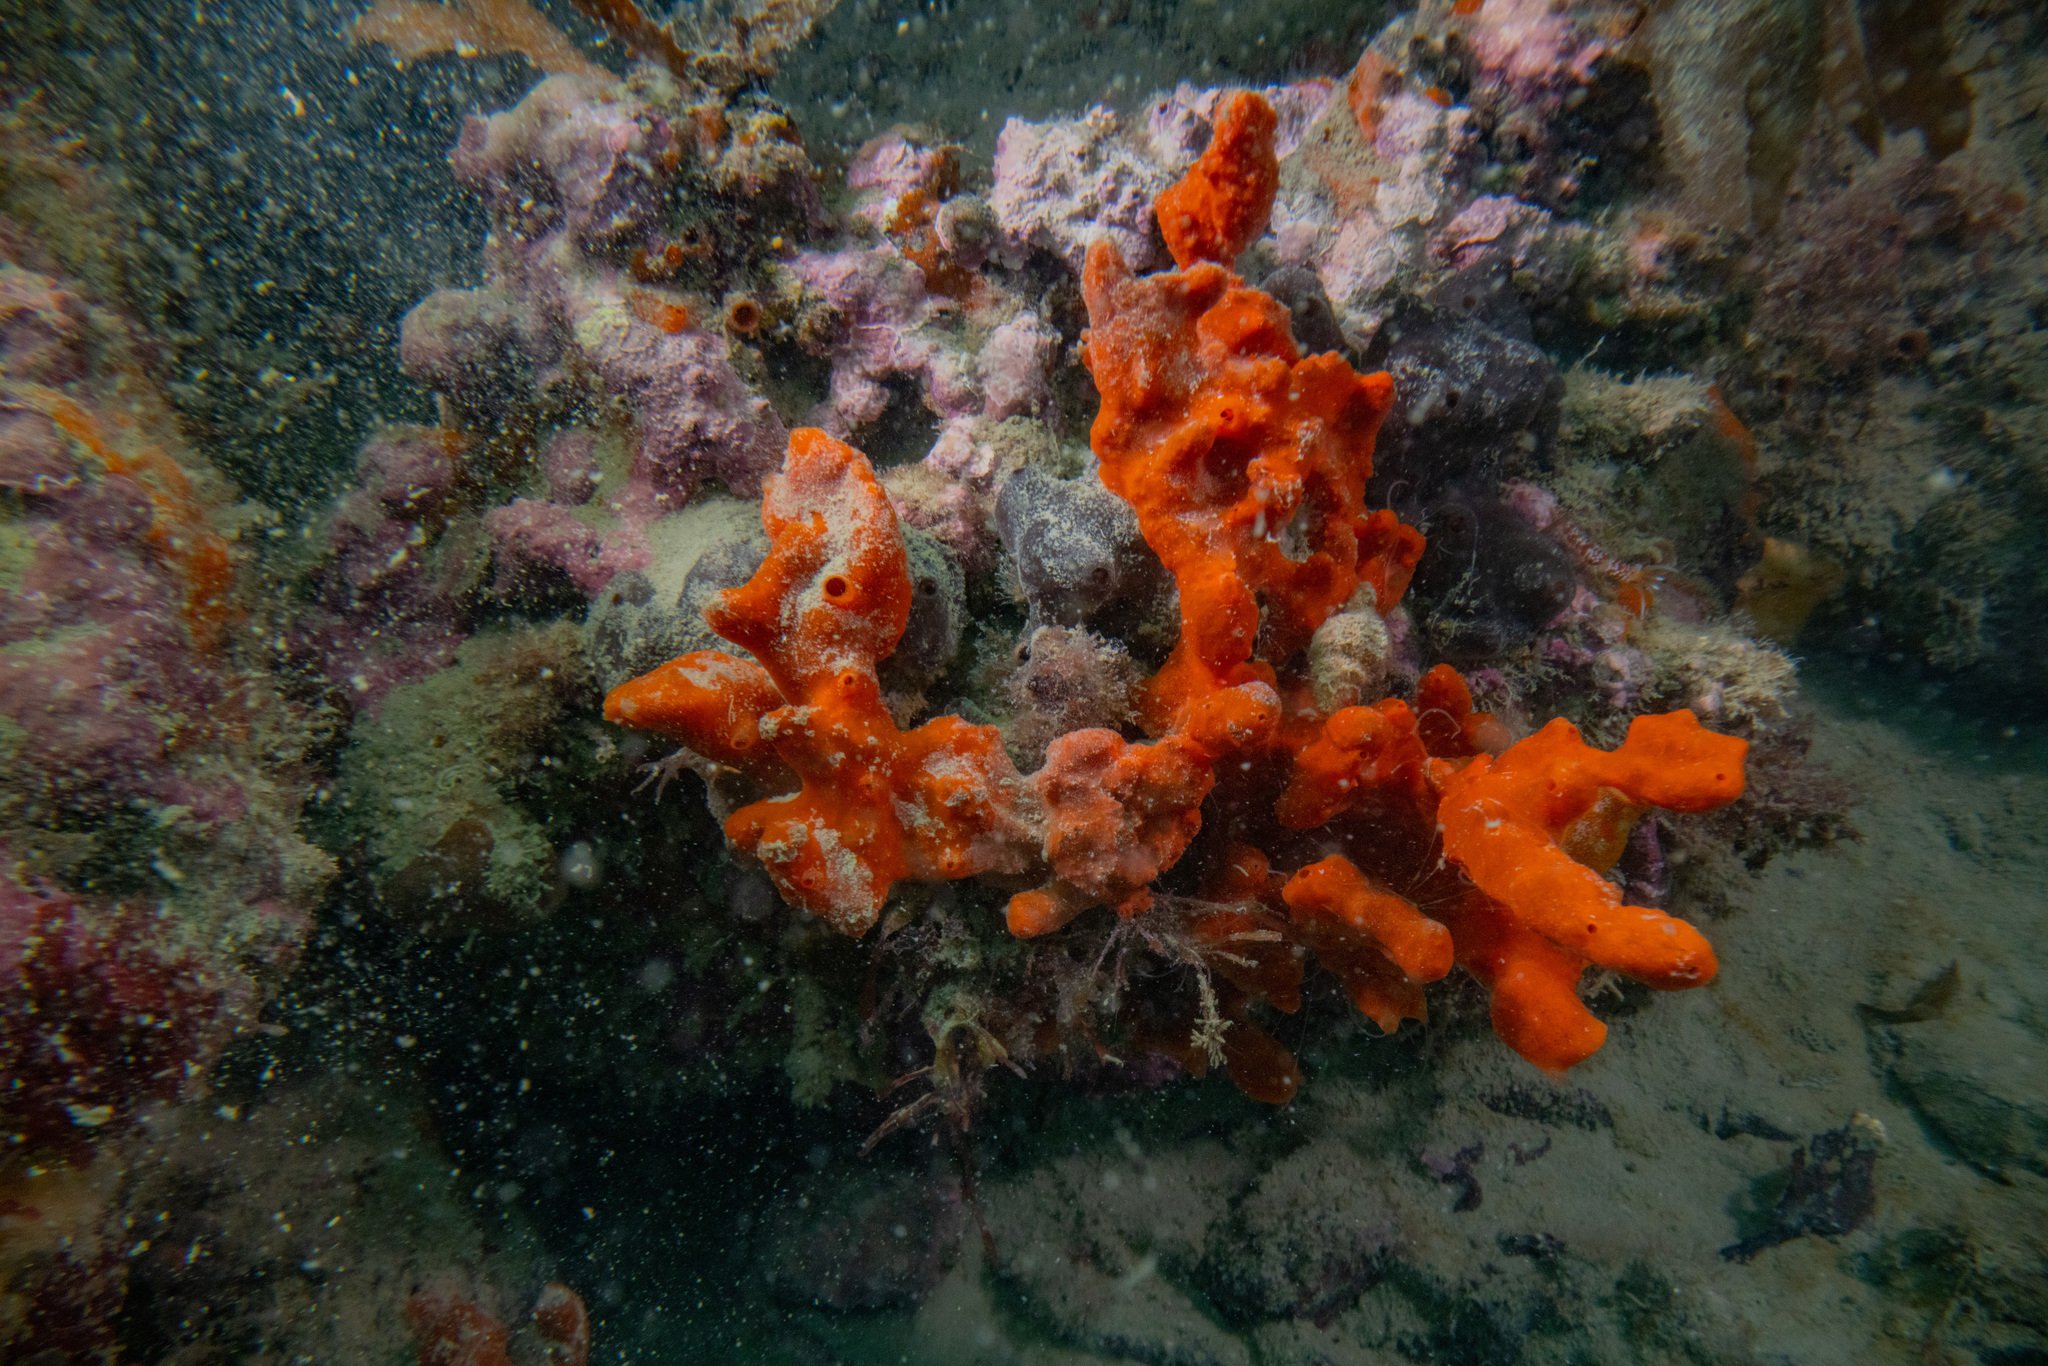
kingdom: Animalia
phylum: Porifera
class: Demospongiae
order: Poecilosclerida
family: Crellidae
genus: Crella
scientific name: Crella incrustans
